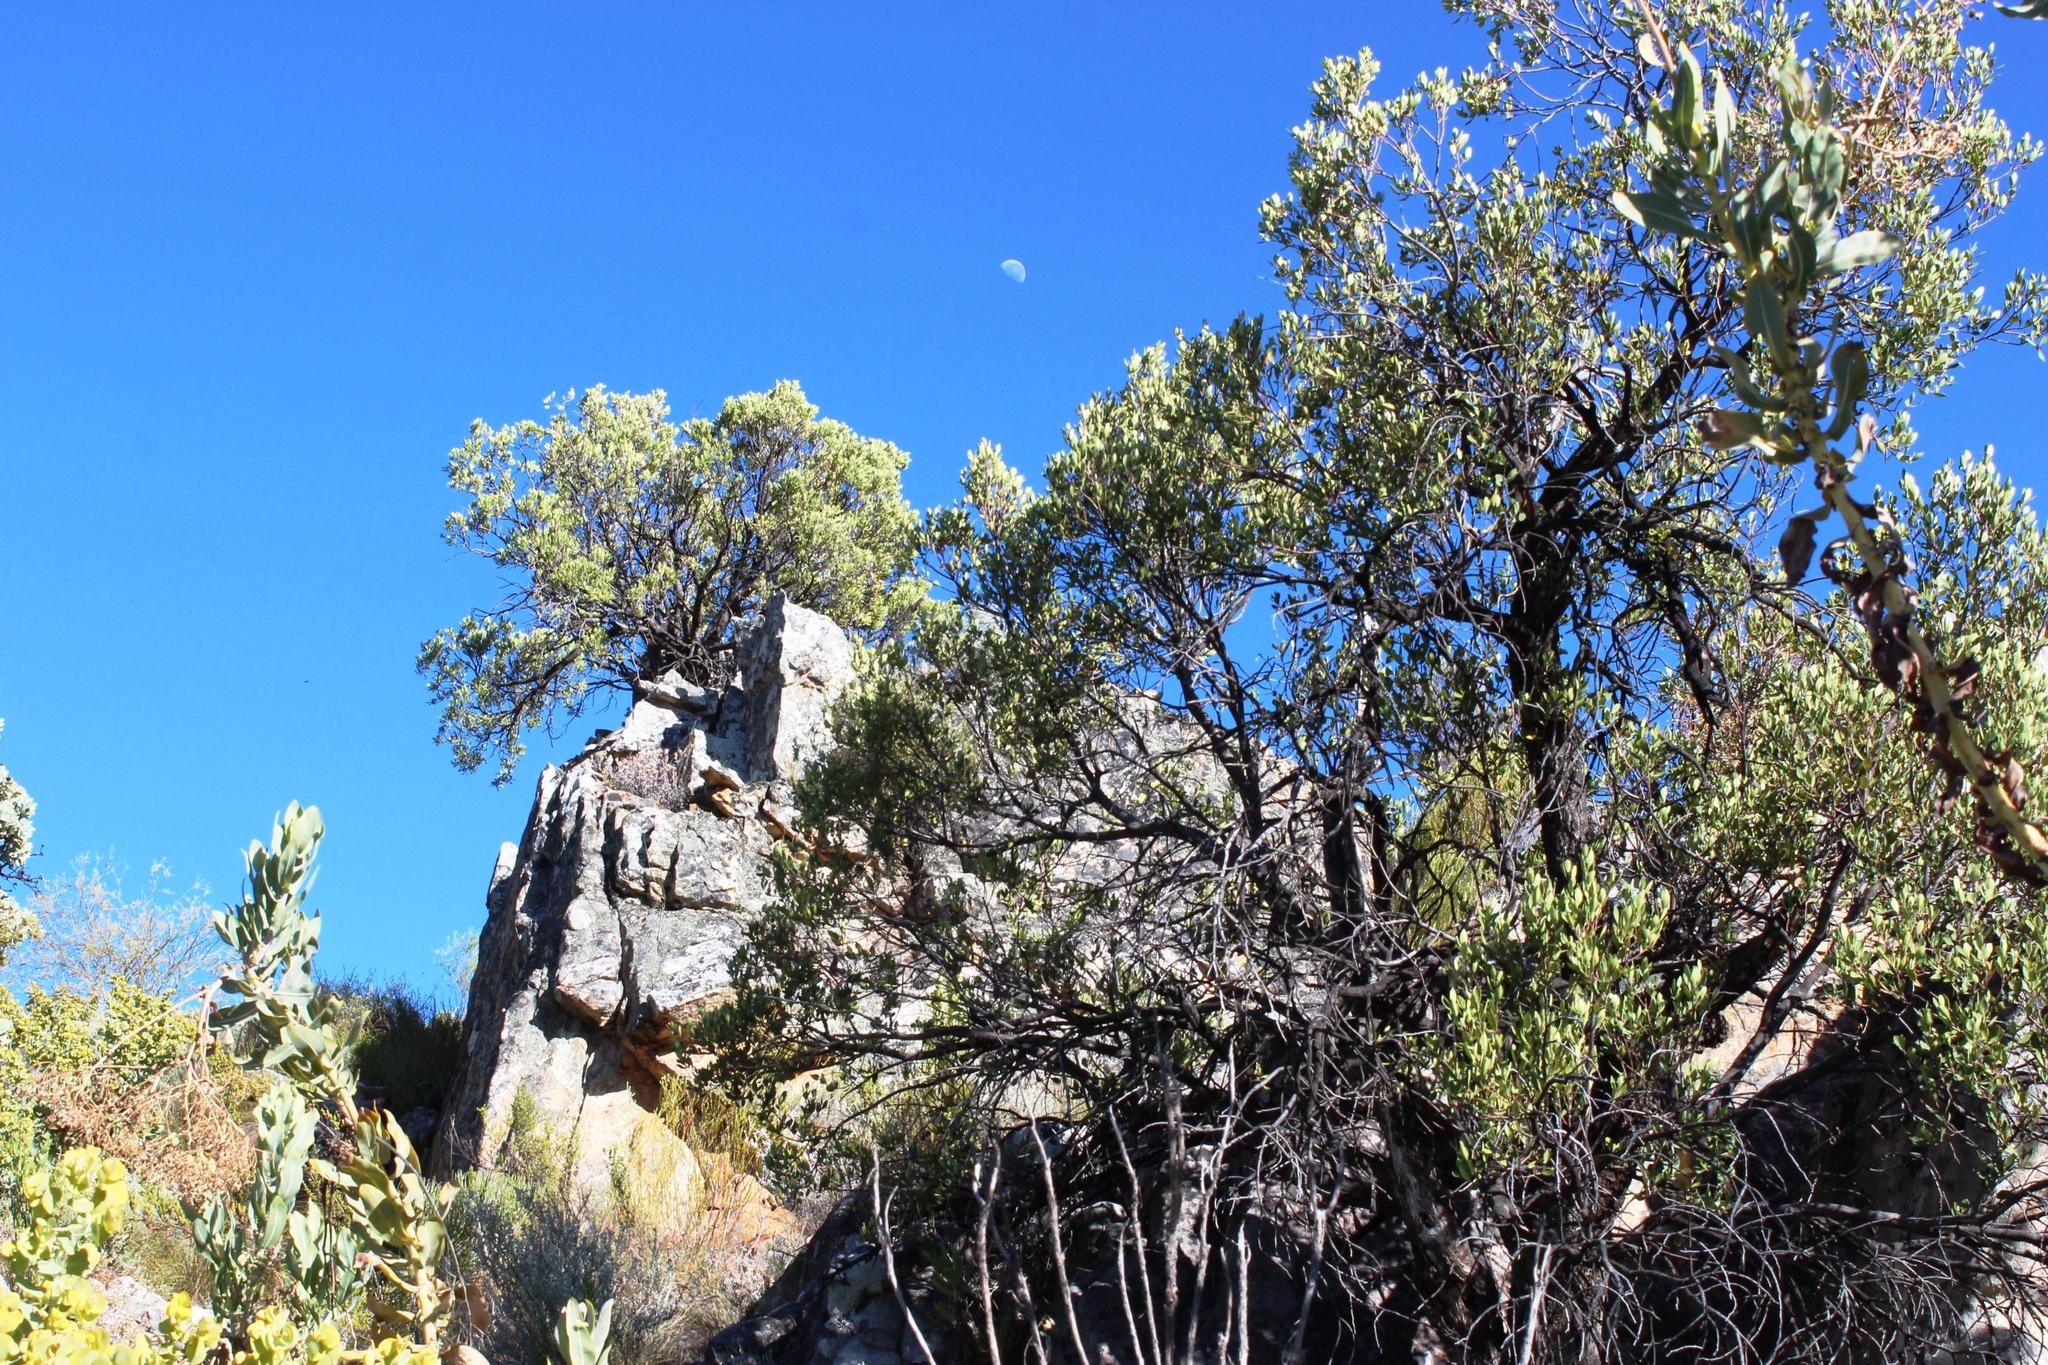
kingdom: Plantae
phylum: Tracheophyta
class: Magnoliopsida
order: Celastrales
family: Celastraceae
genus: Gymnosporia
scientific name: Gymnosporia laurina
